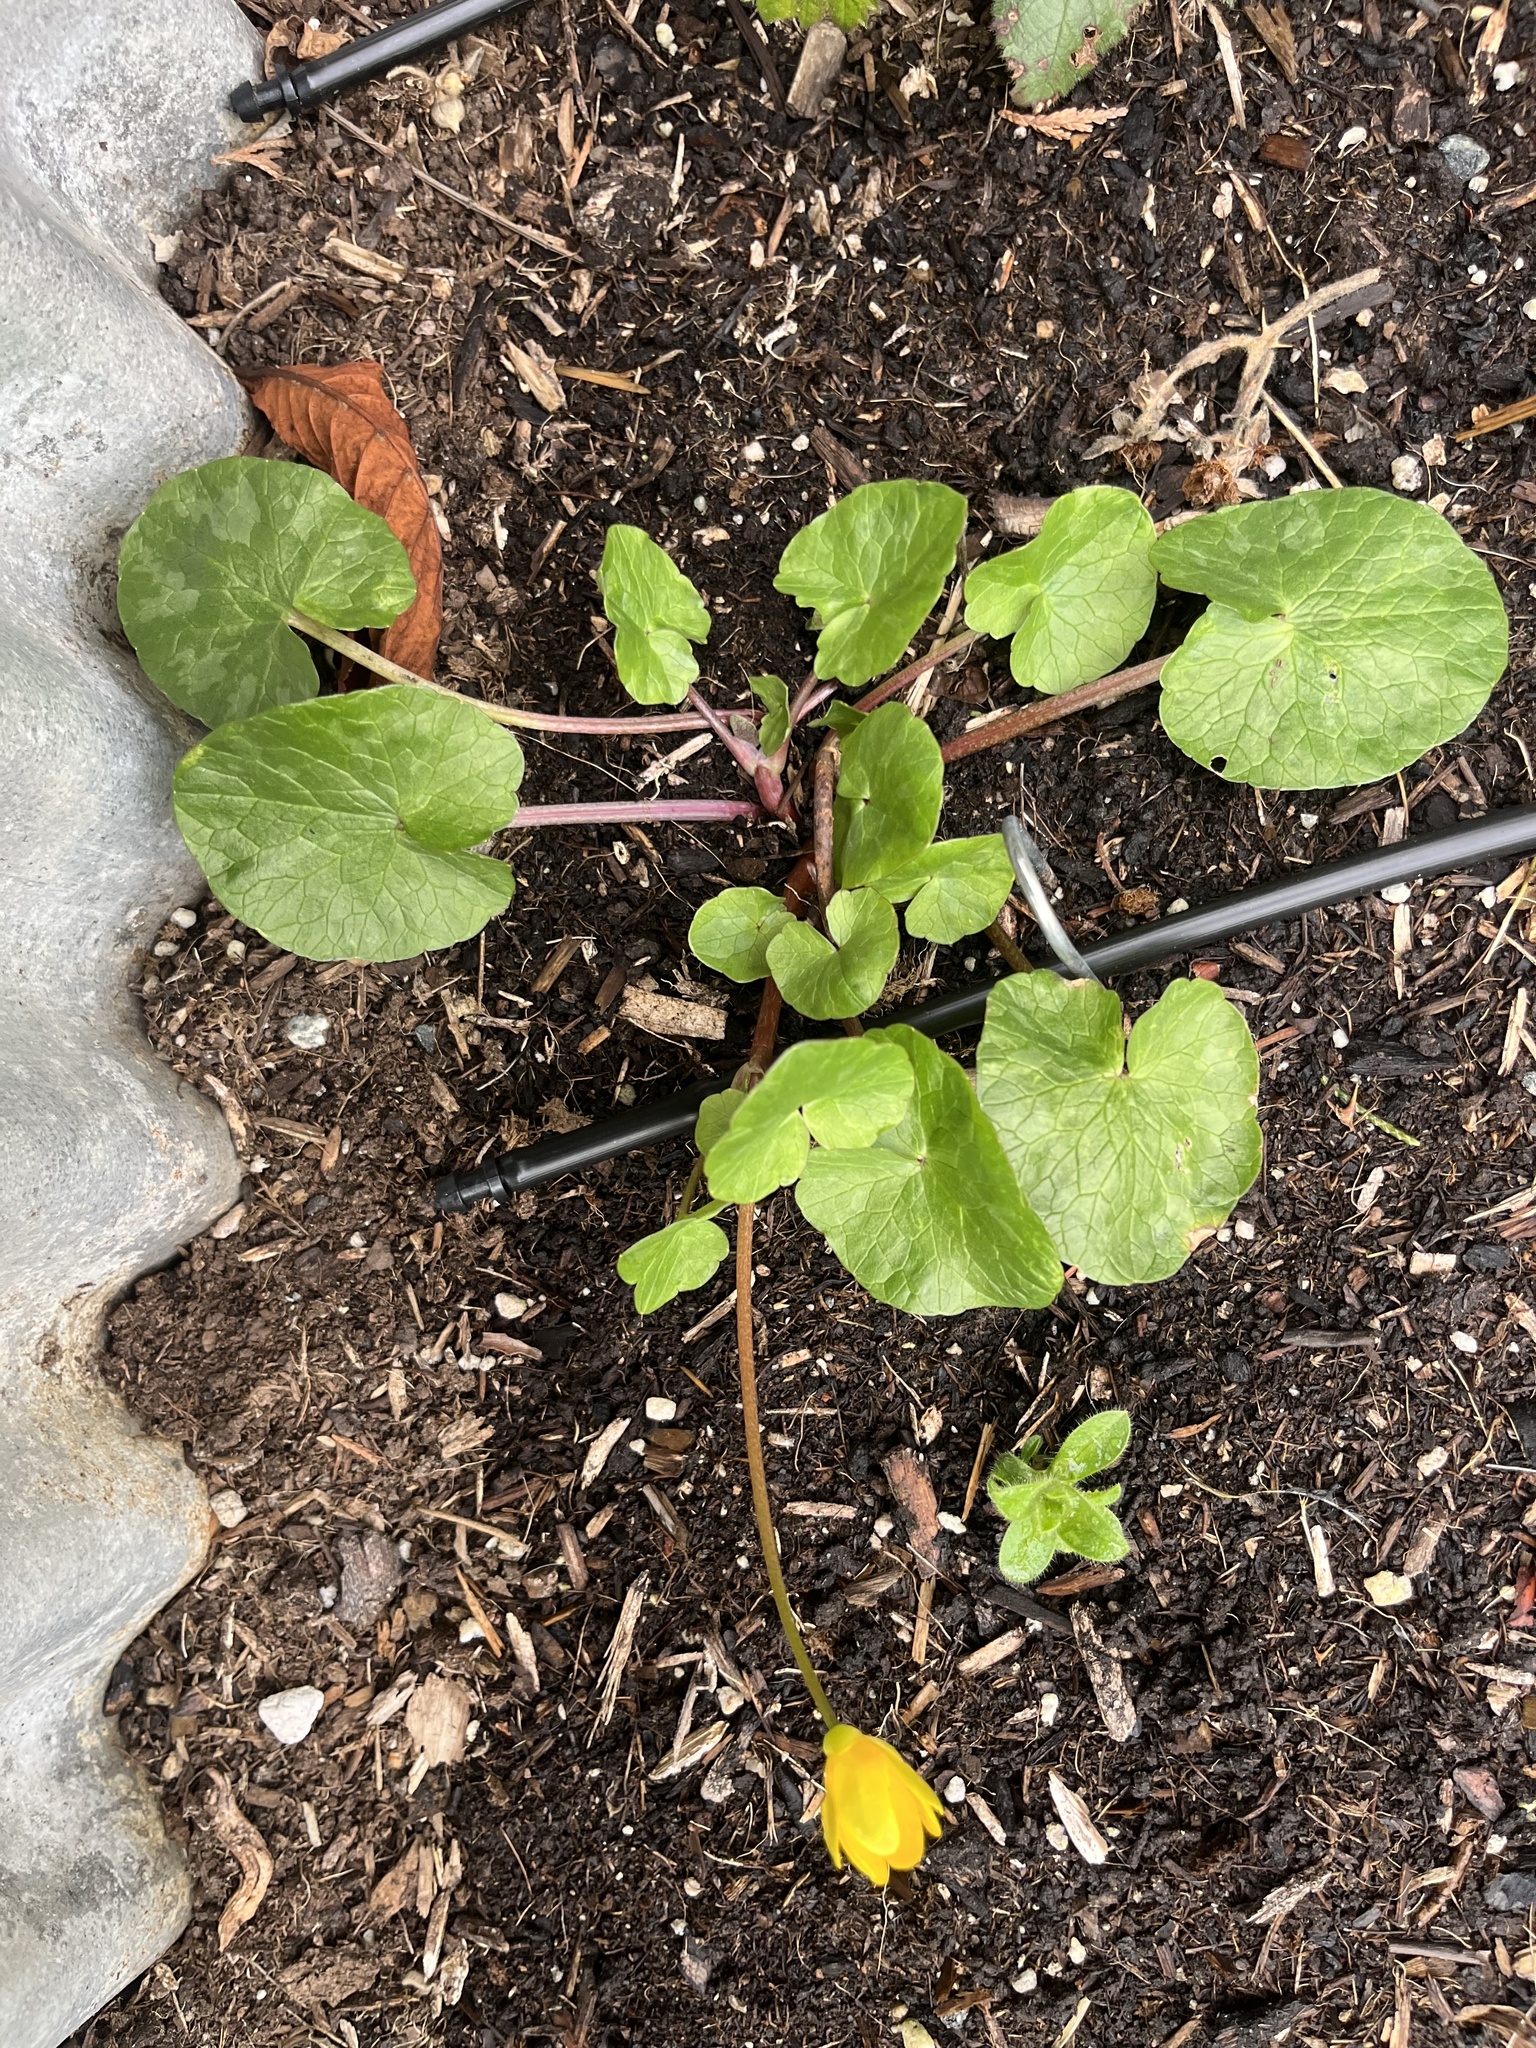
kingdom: Plantae
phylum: Tracheophyta
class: Magnoliopsida
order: Ranunculales
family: Ranunculaceae
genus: Ficaria
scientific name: Ficaria verna
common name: Lesser celandine
